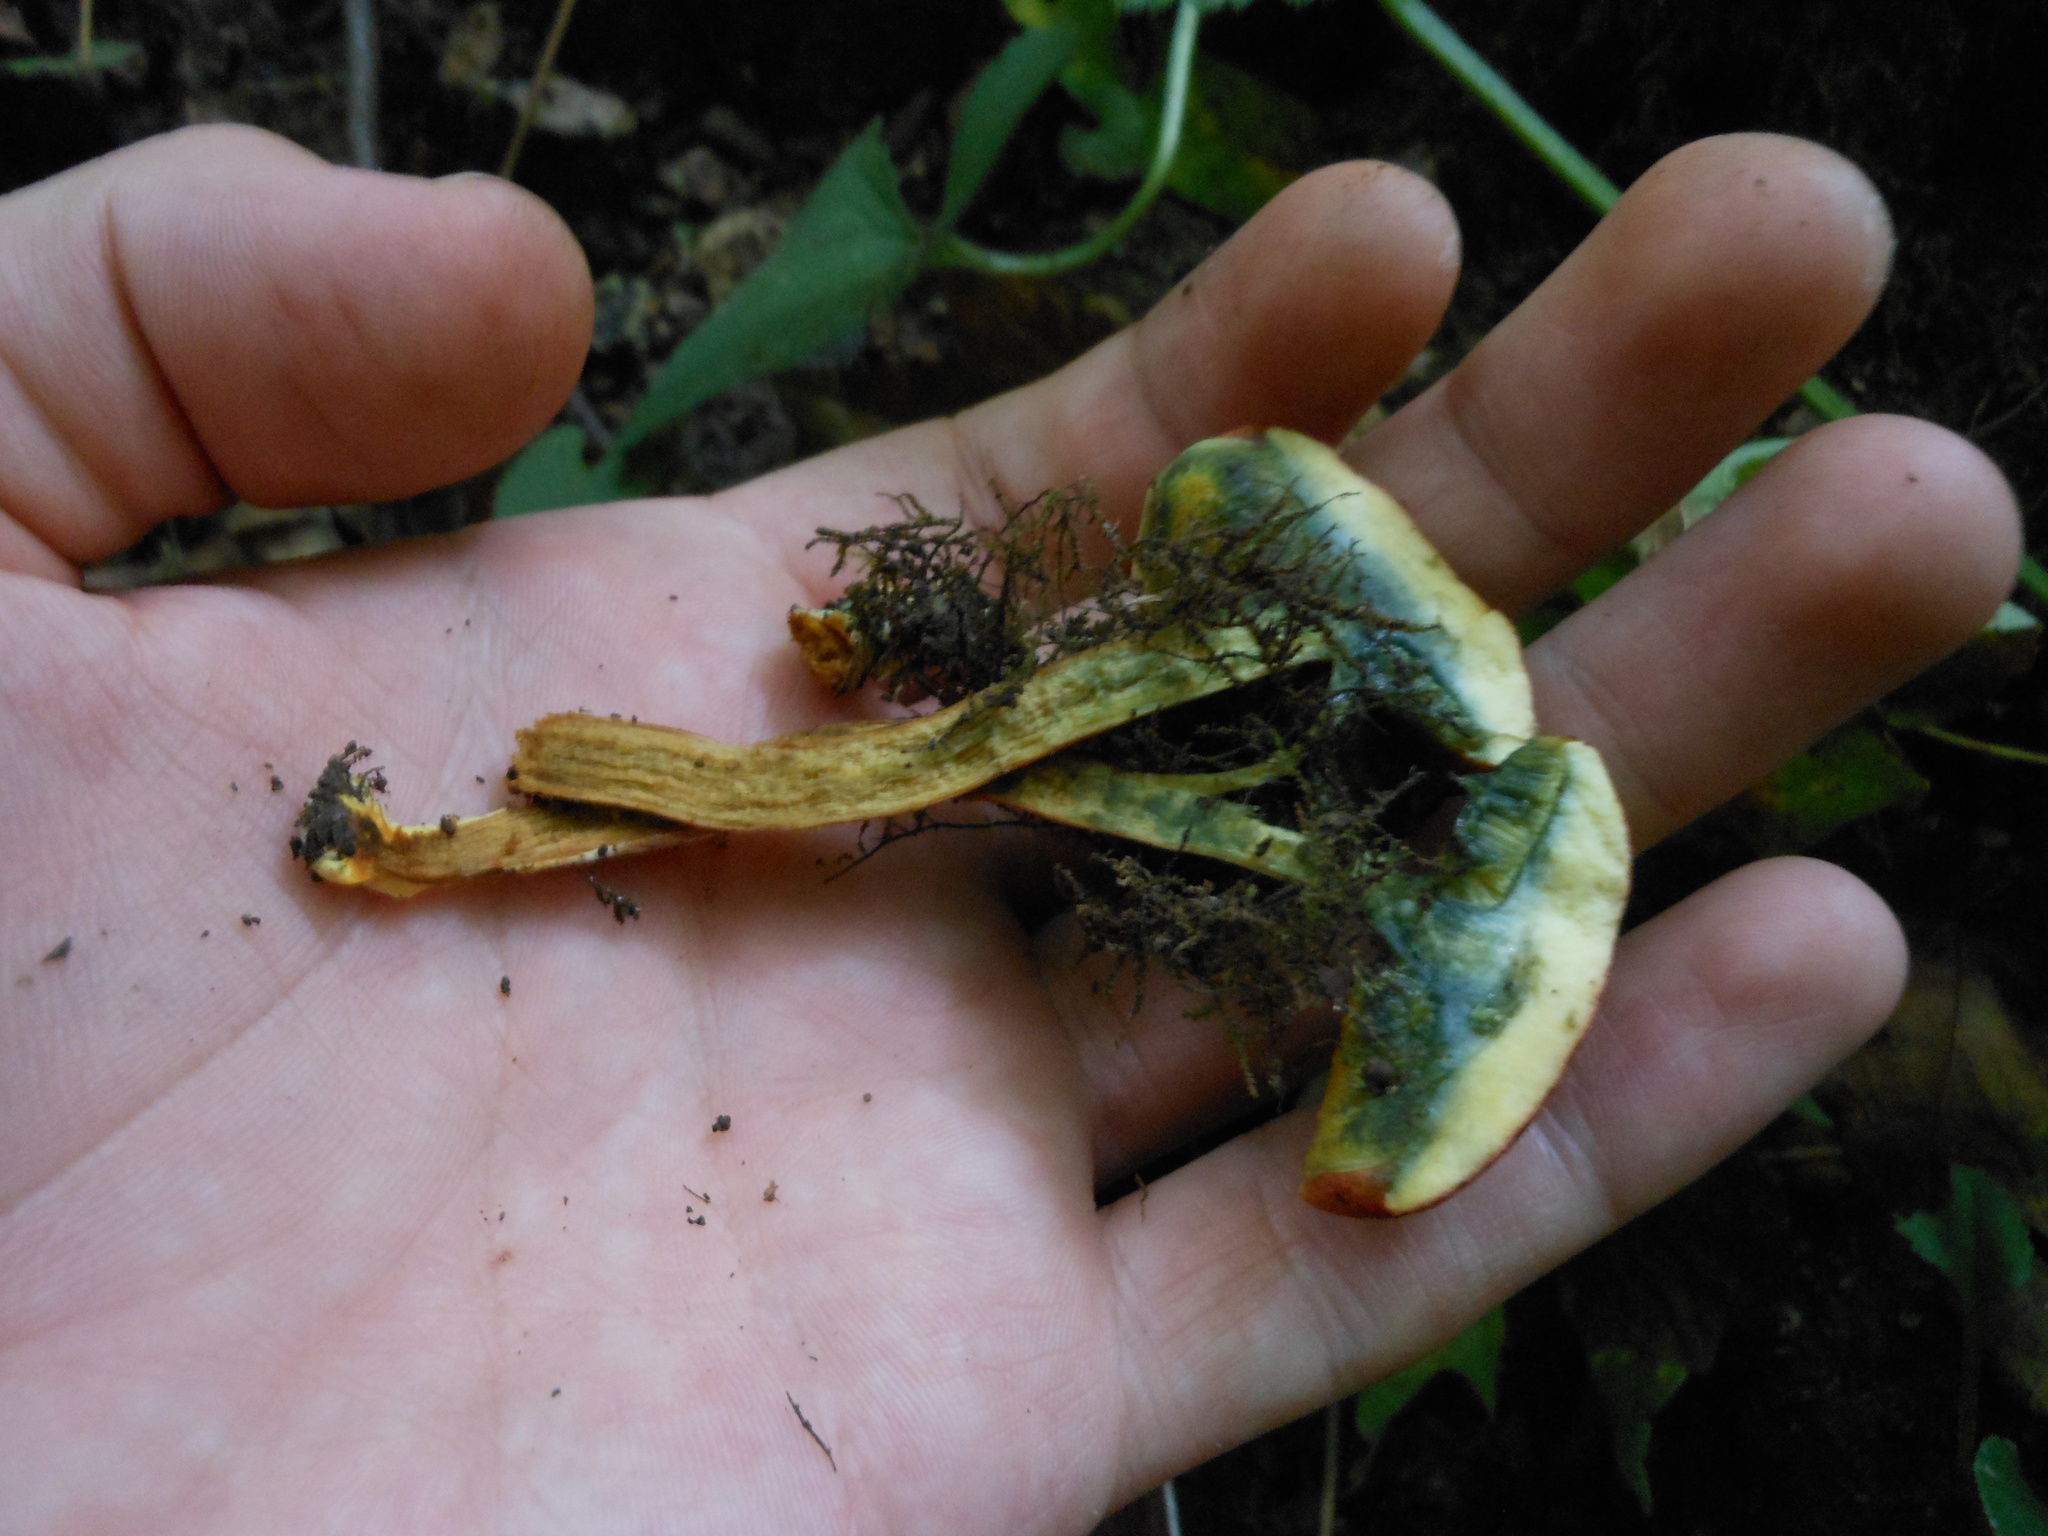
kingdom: Fungi
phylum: Basidiomycota
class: Agaricomycetes
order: Boletales
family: Boletaceae
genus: Boletus
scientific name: Boletus harrisonii
